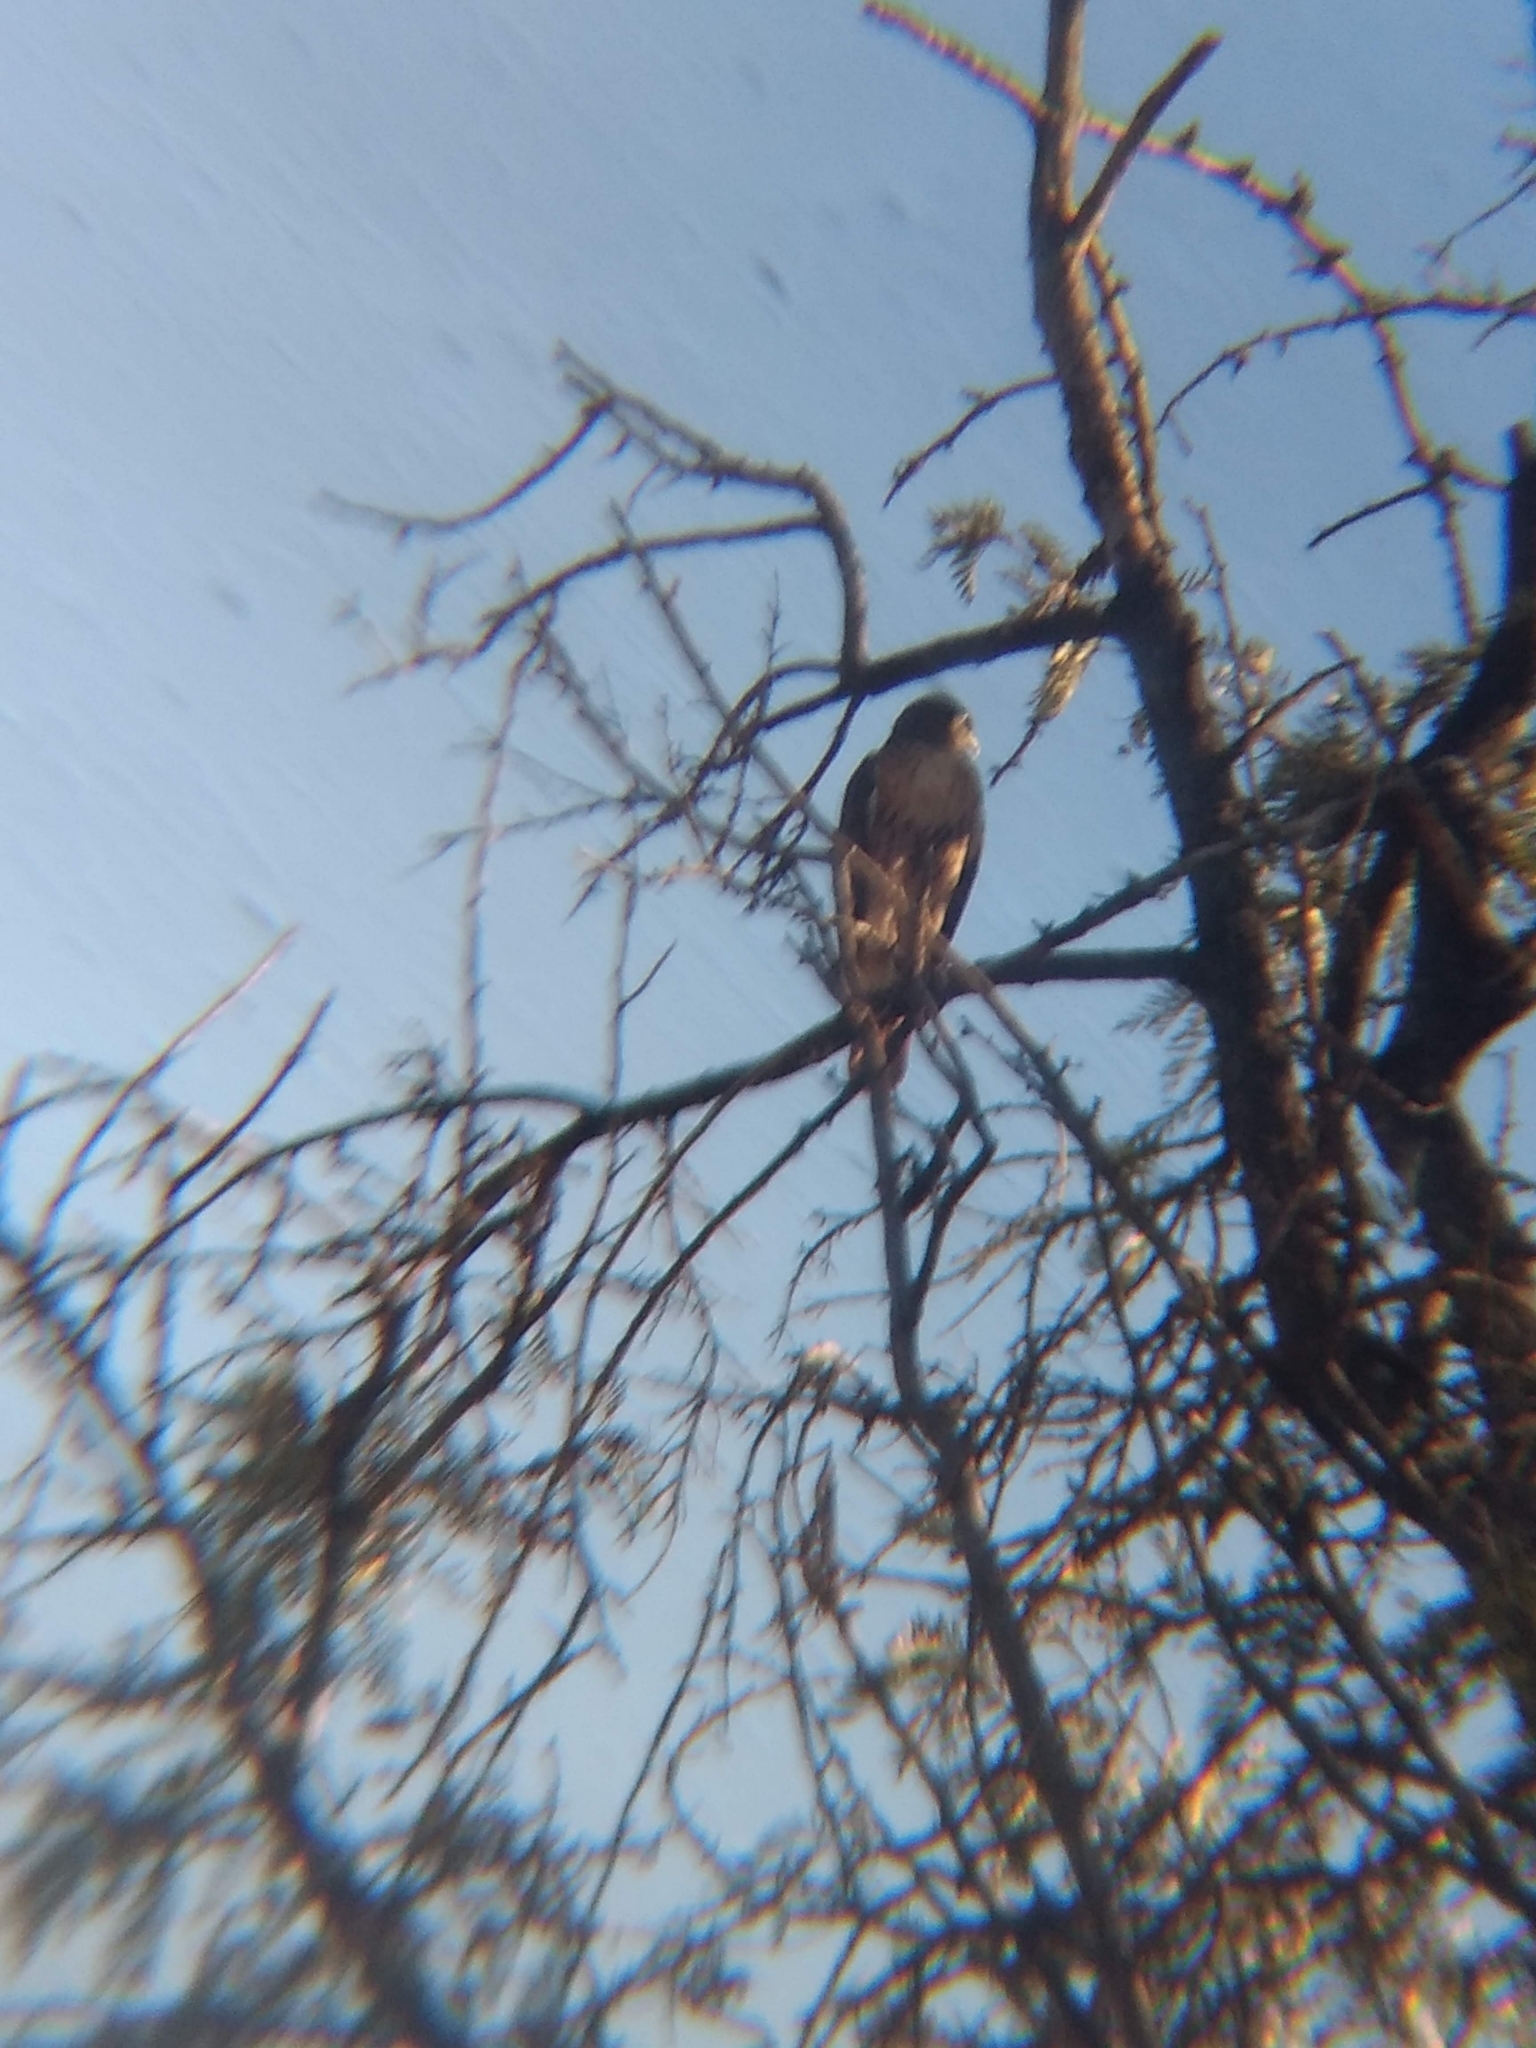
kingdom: Animalia
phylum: Chordata
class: Aves
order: Accipitriformes
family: Accipitridae
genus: Buteo
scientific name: Buteo jamaicensis
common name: Red-tailed hawk
